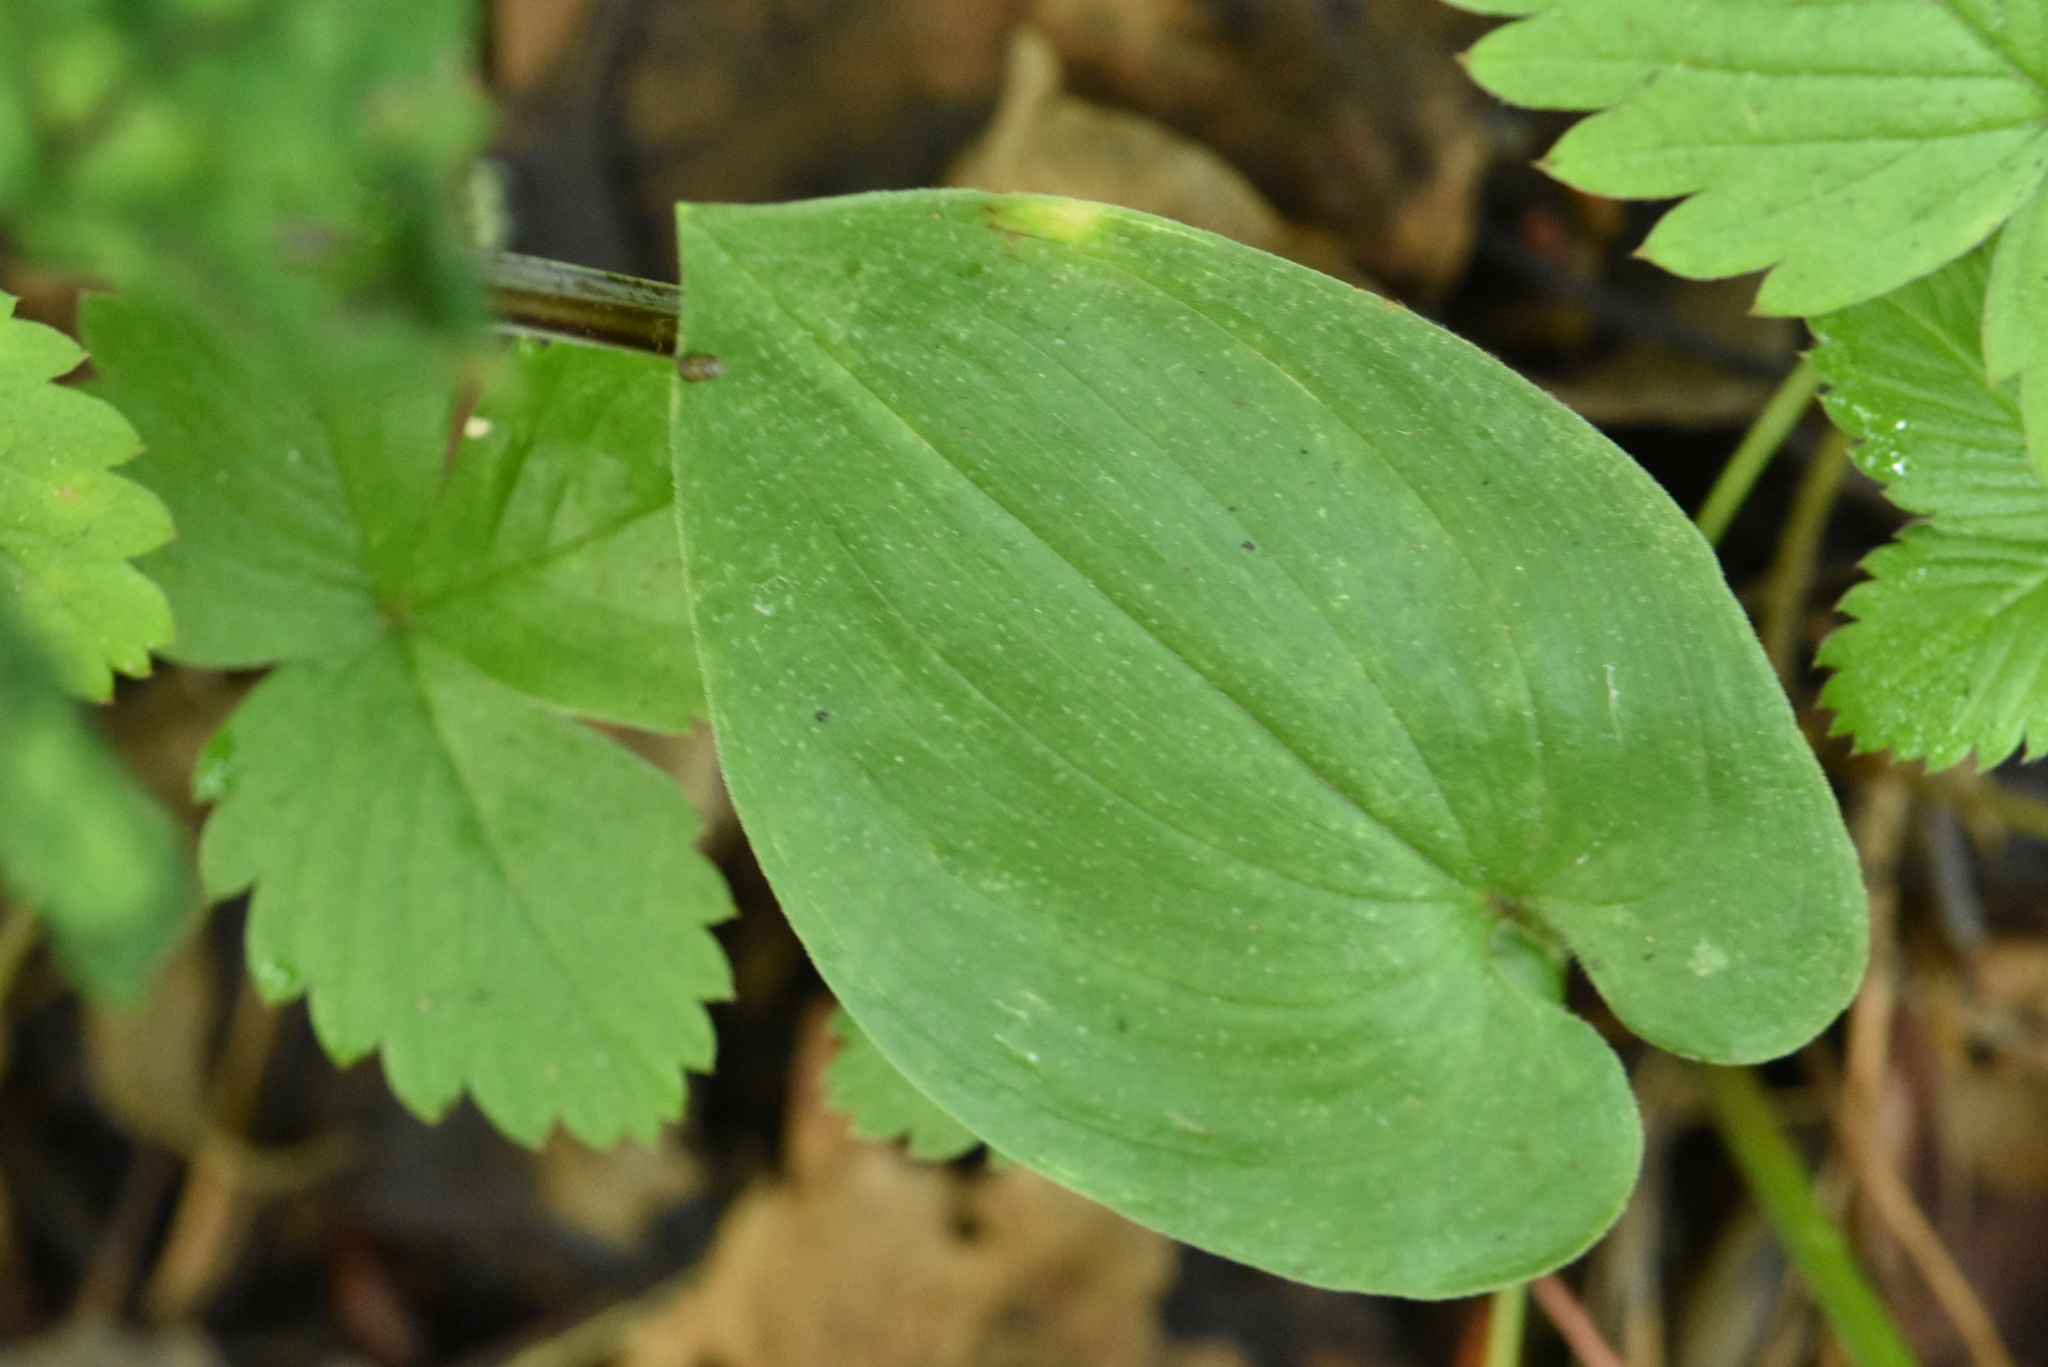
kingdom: Plantae
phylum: Tracheophyta
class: Liliopsida
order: Asparagales
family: Asparagaceae
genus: Maianthemum
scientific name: Maianthemum bifolium
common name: May lily
